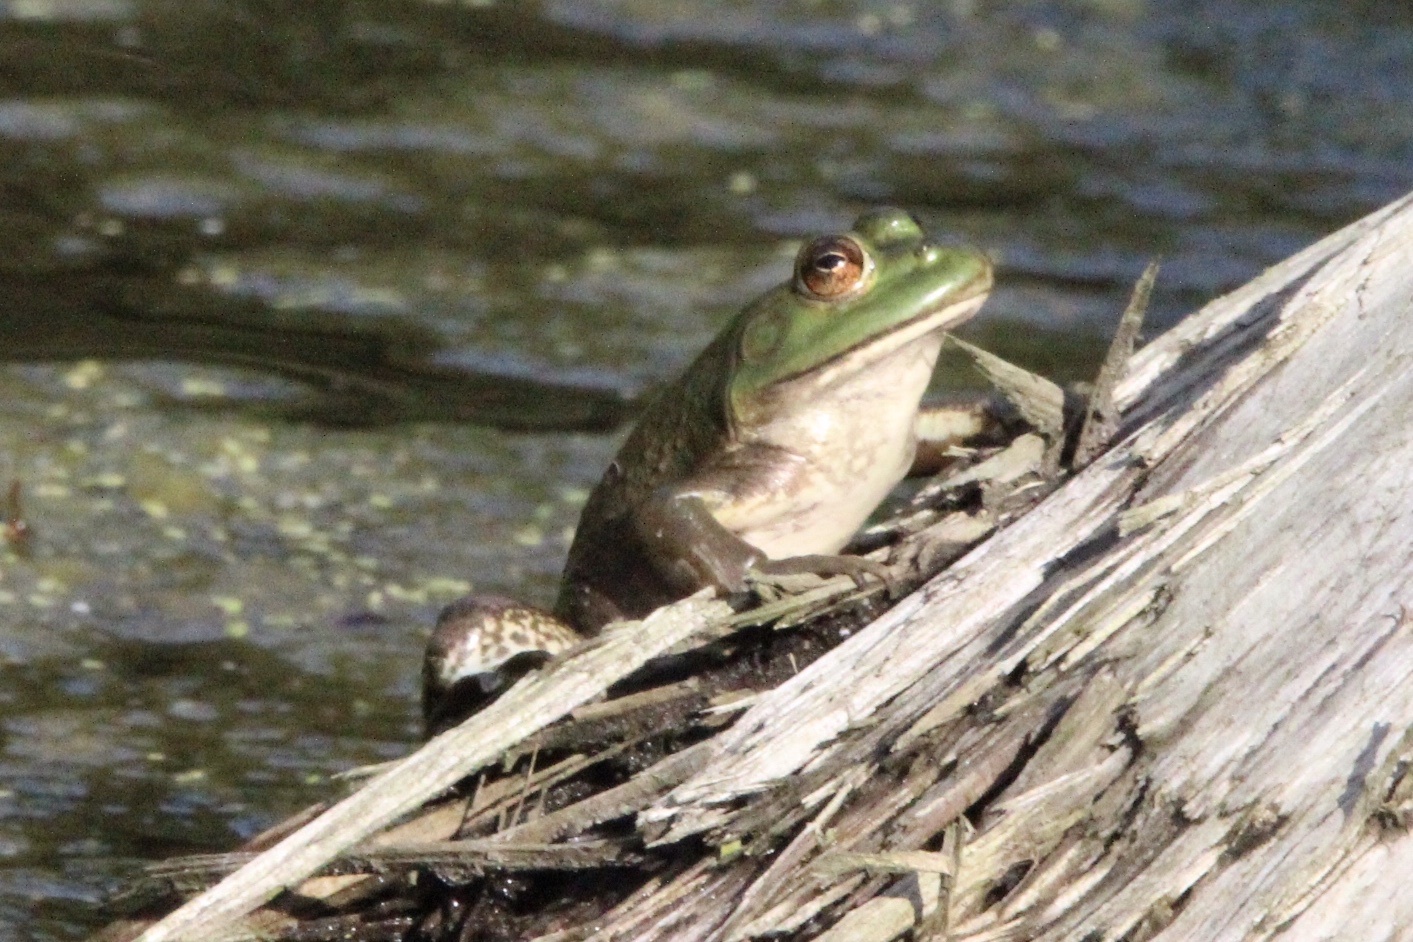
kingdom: Animalia
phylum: Chordata
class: Amphibia
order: Anura
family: Ranidae
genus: Lithobates
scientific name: Lithobates catesbeianus
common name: American bullfrog
